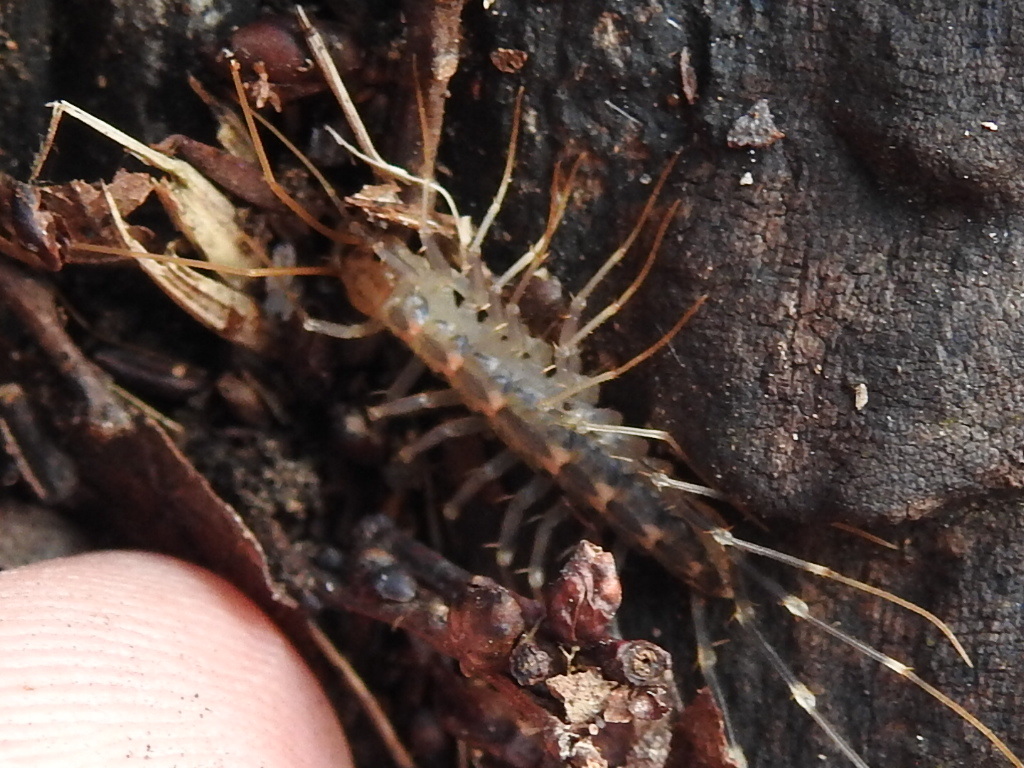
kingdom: Animalia
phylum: Arthropoda
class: Chilopoda
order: Scutigeromorpha
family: Scutigeridae
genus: Scutigera
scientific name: Scutigera coleoptrata
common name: House centipede
